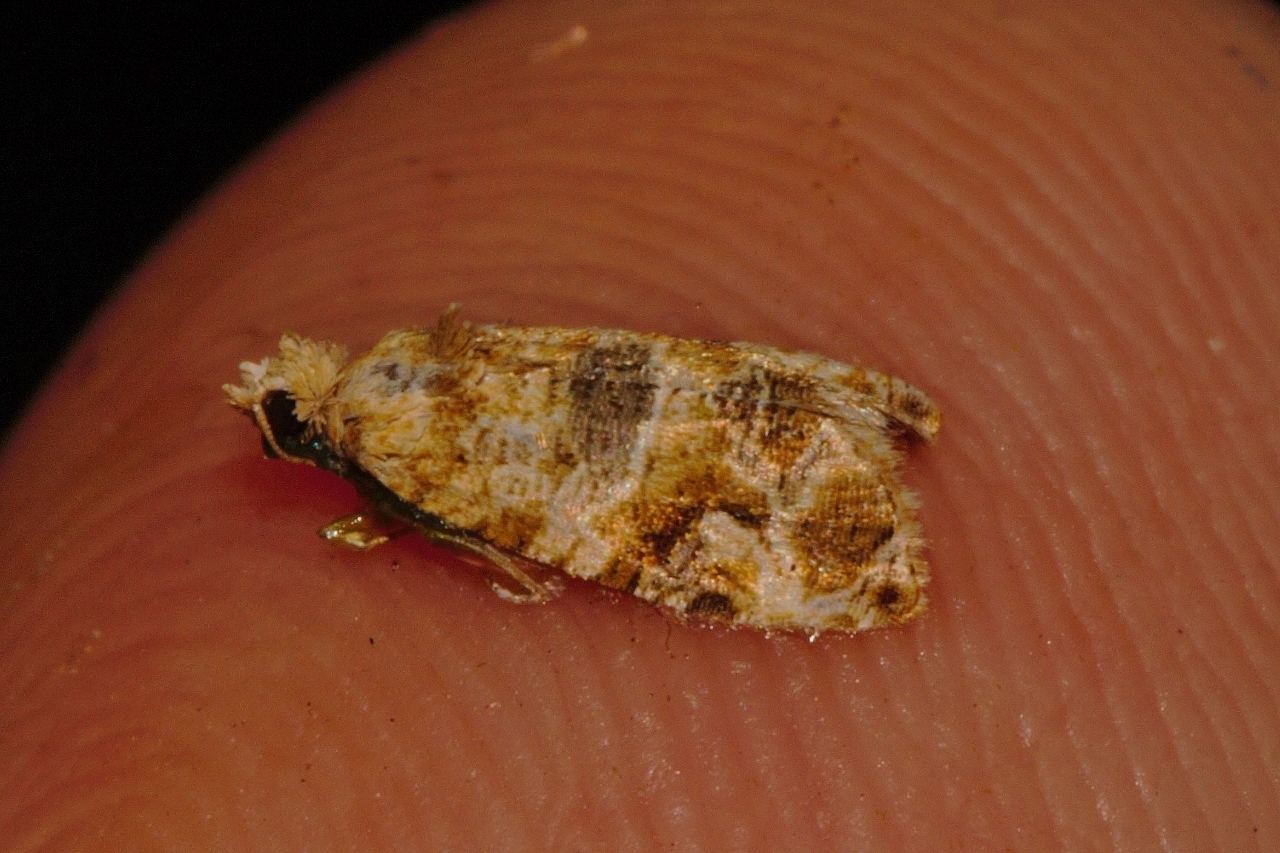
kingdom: Animalia
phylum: Arthropoda
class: Insecta
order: Lepidoptera
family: Tortricidae
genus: Lobesia
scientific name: Lobesia vanillana
